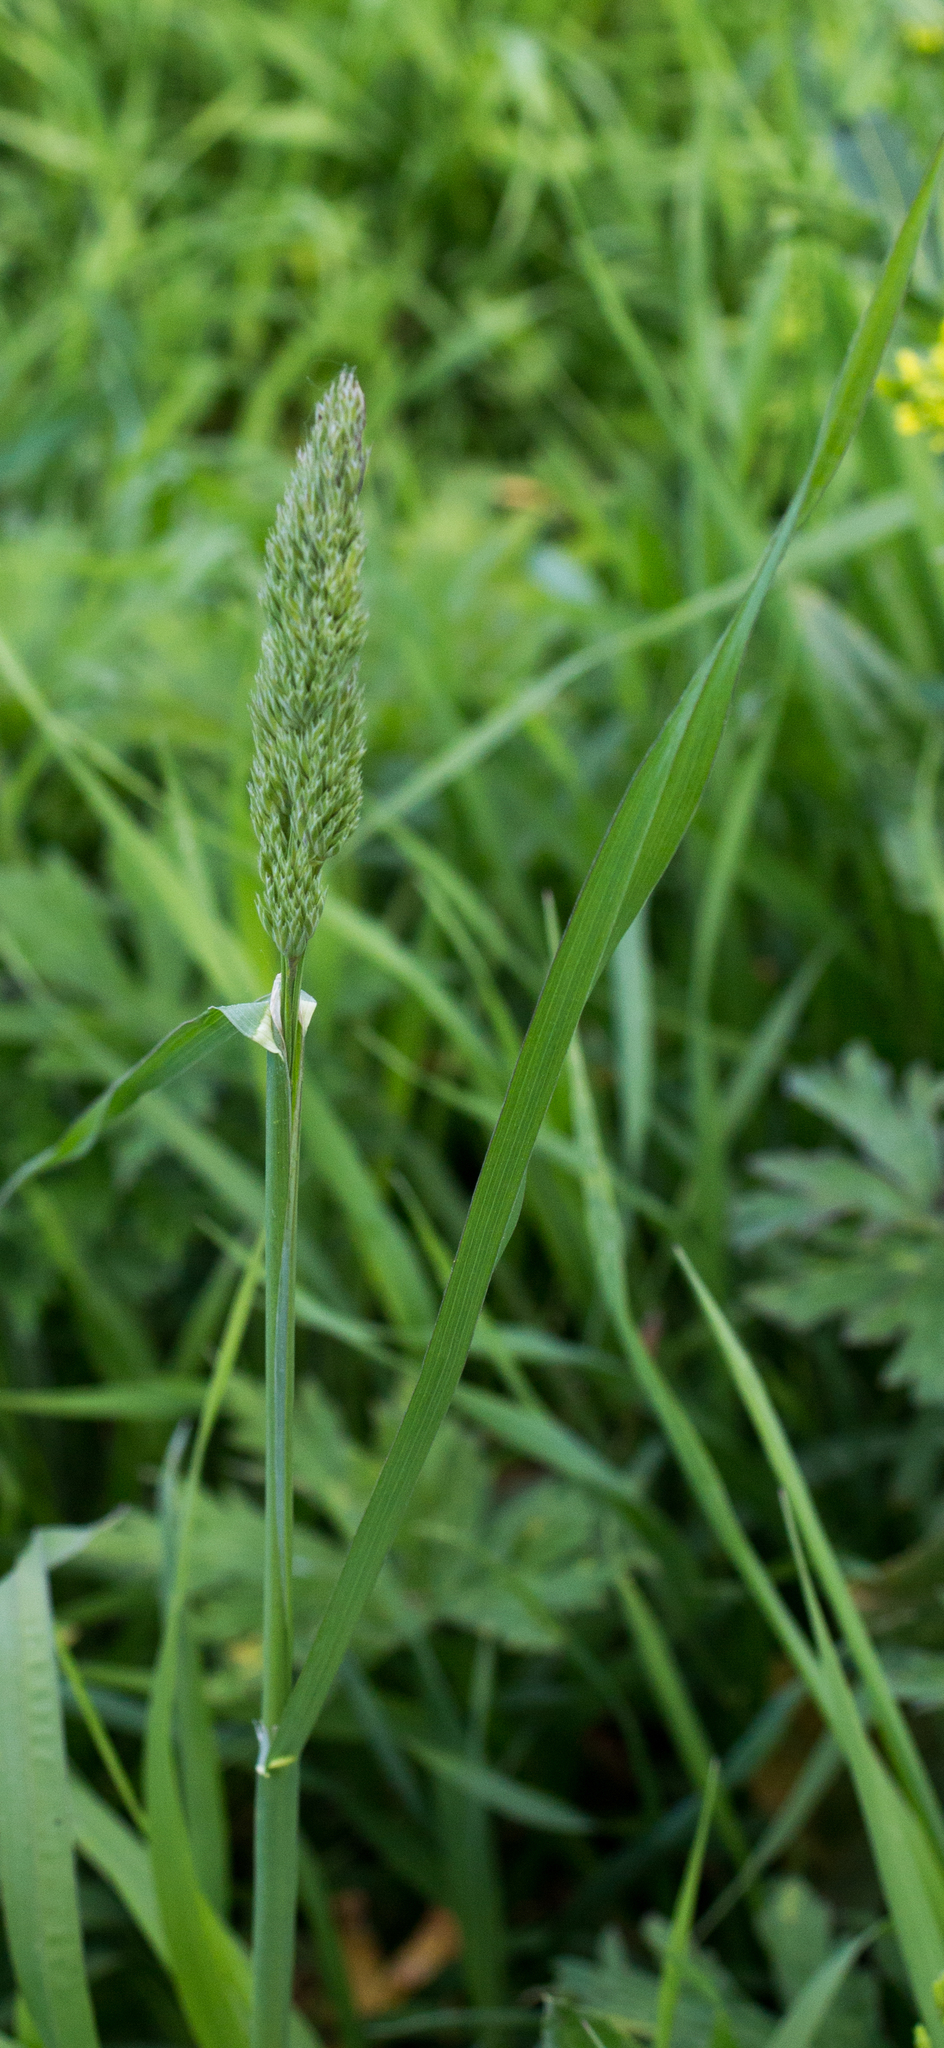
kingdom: Plantae
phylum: Tracheophyta
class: Liliopsida
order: Poales
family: Poaceae
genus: Dactylis
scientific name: Dactylis glomerata
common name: Orchardgrass
